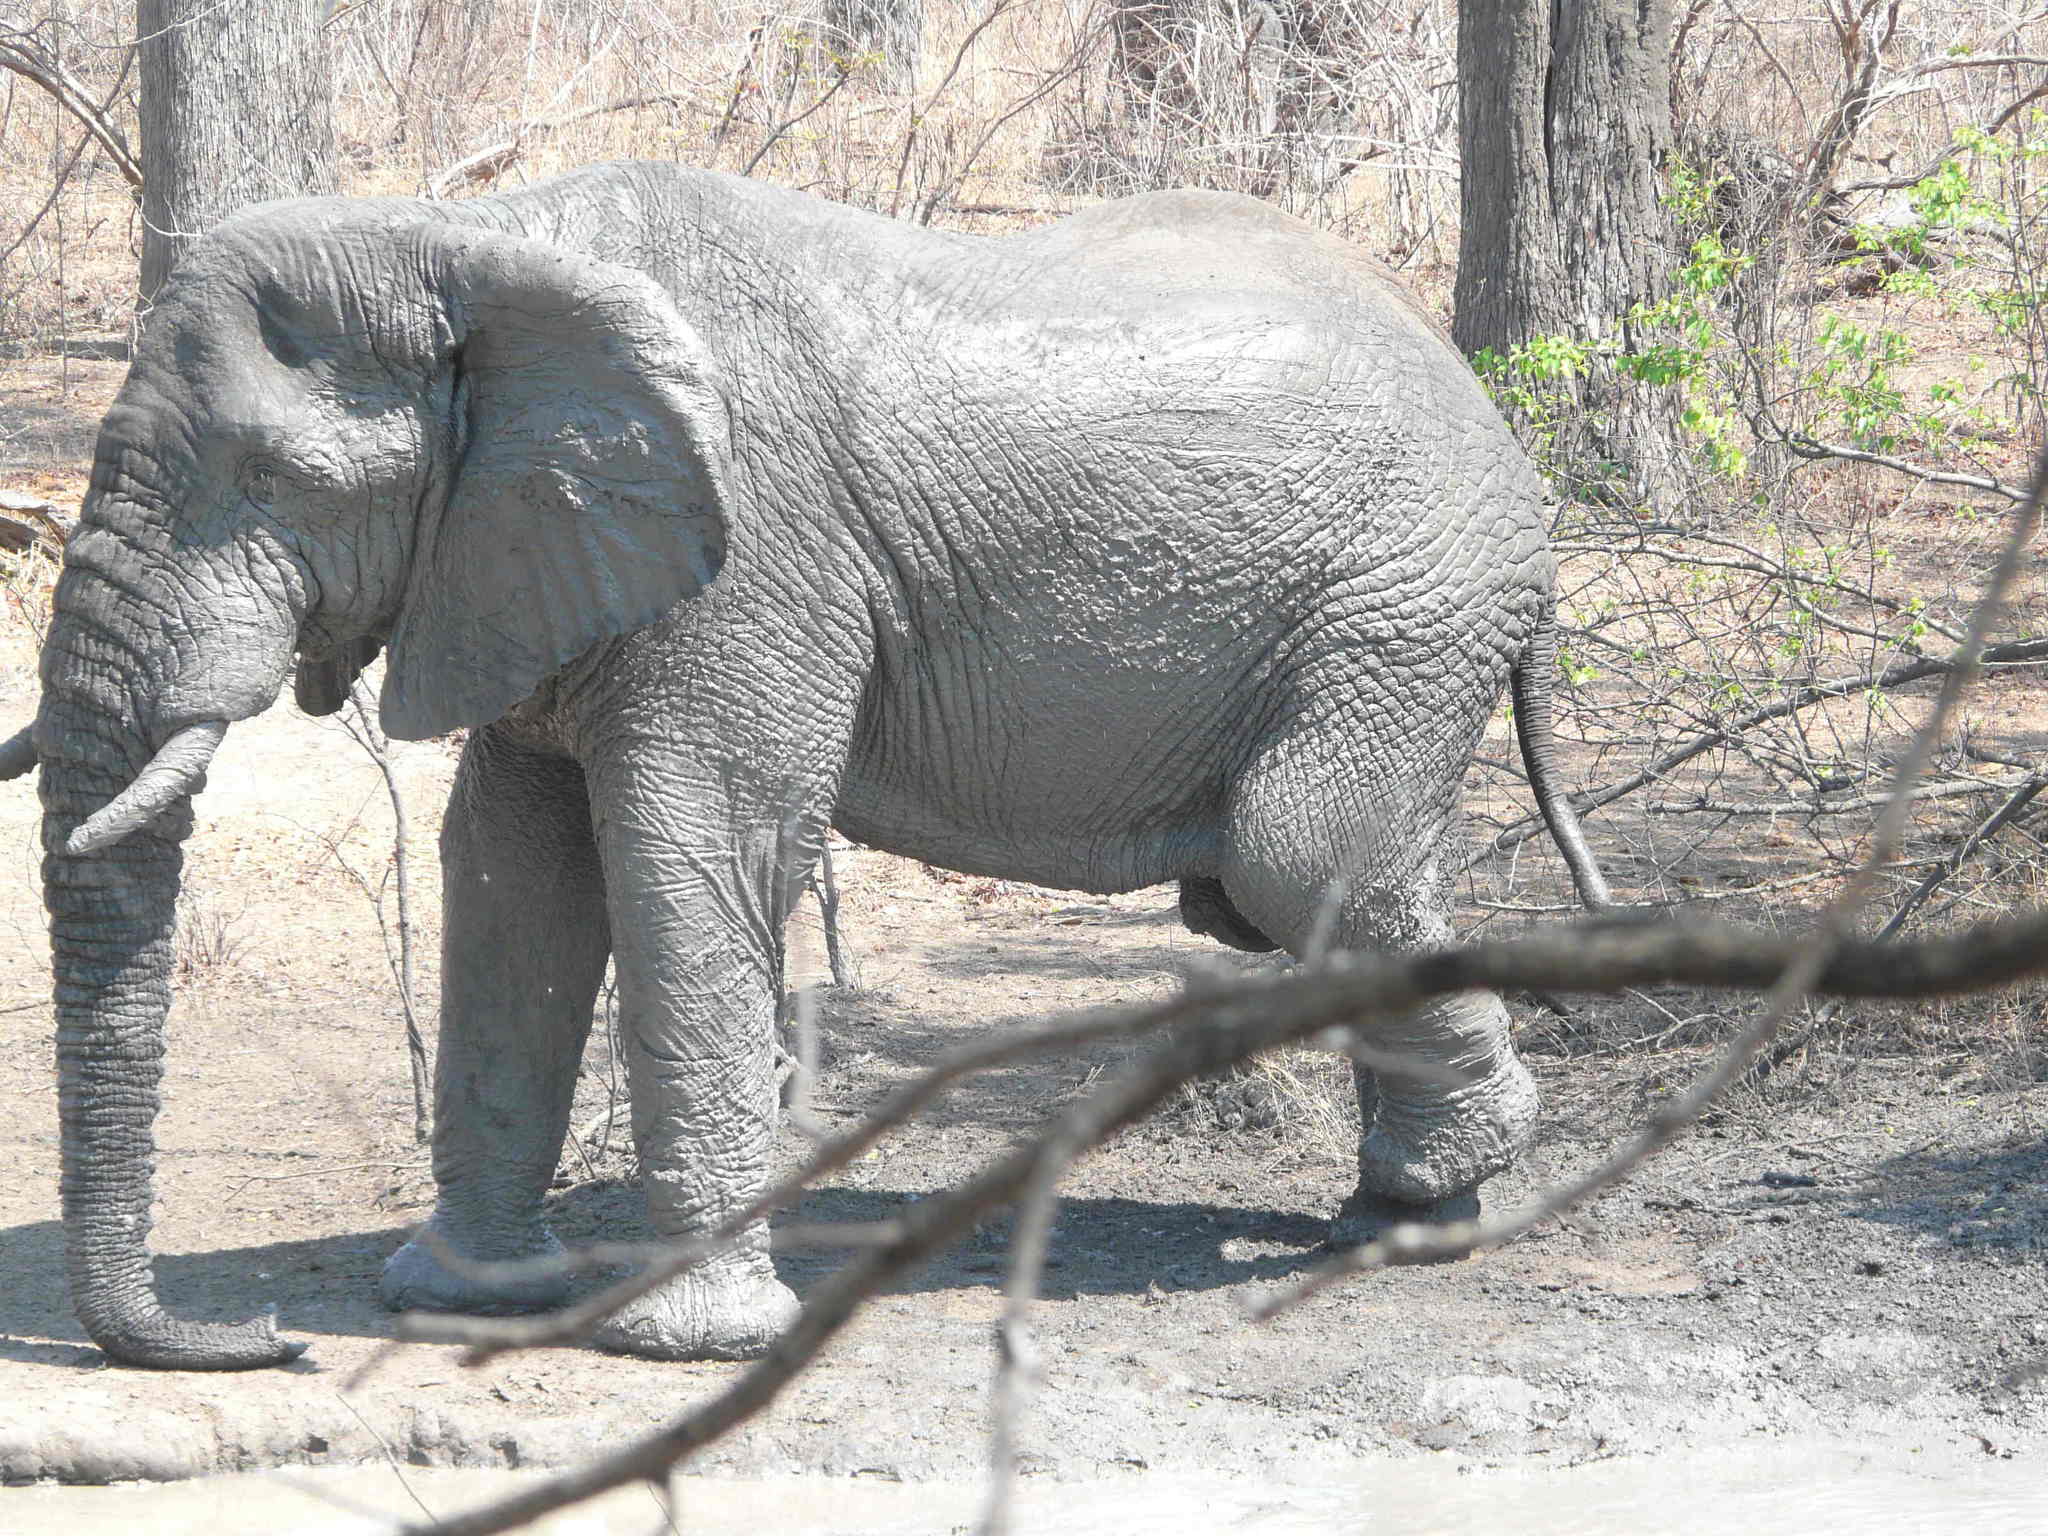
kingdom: Animalia
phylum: Chordata
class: Mammalia
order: Proboscidea
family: Elephantidae
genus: Loxodonta
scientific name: Loxodonta africana
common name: African elephant
